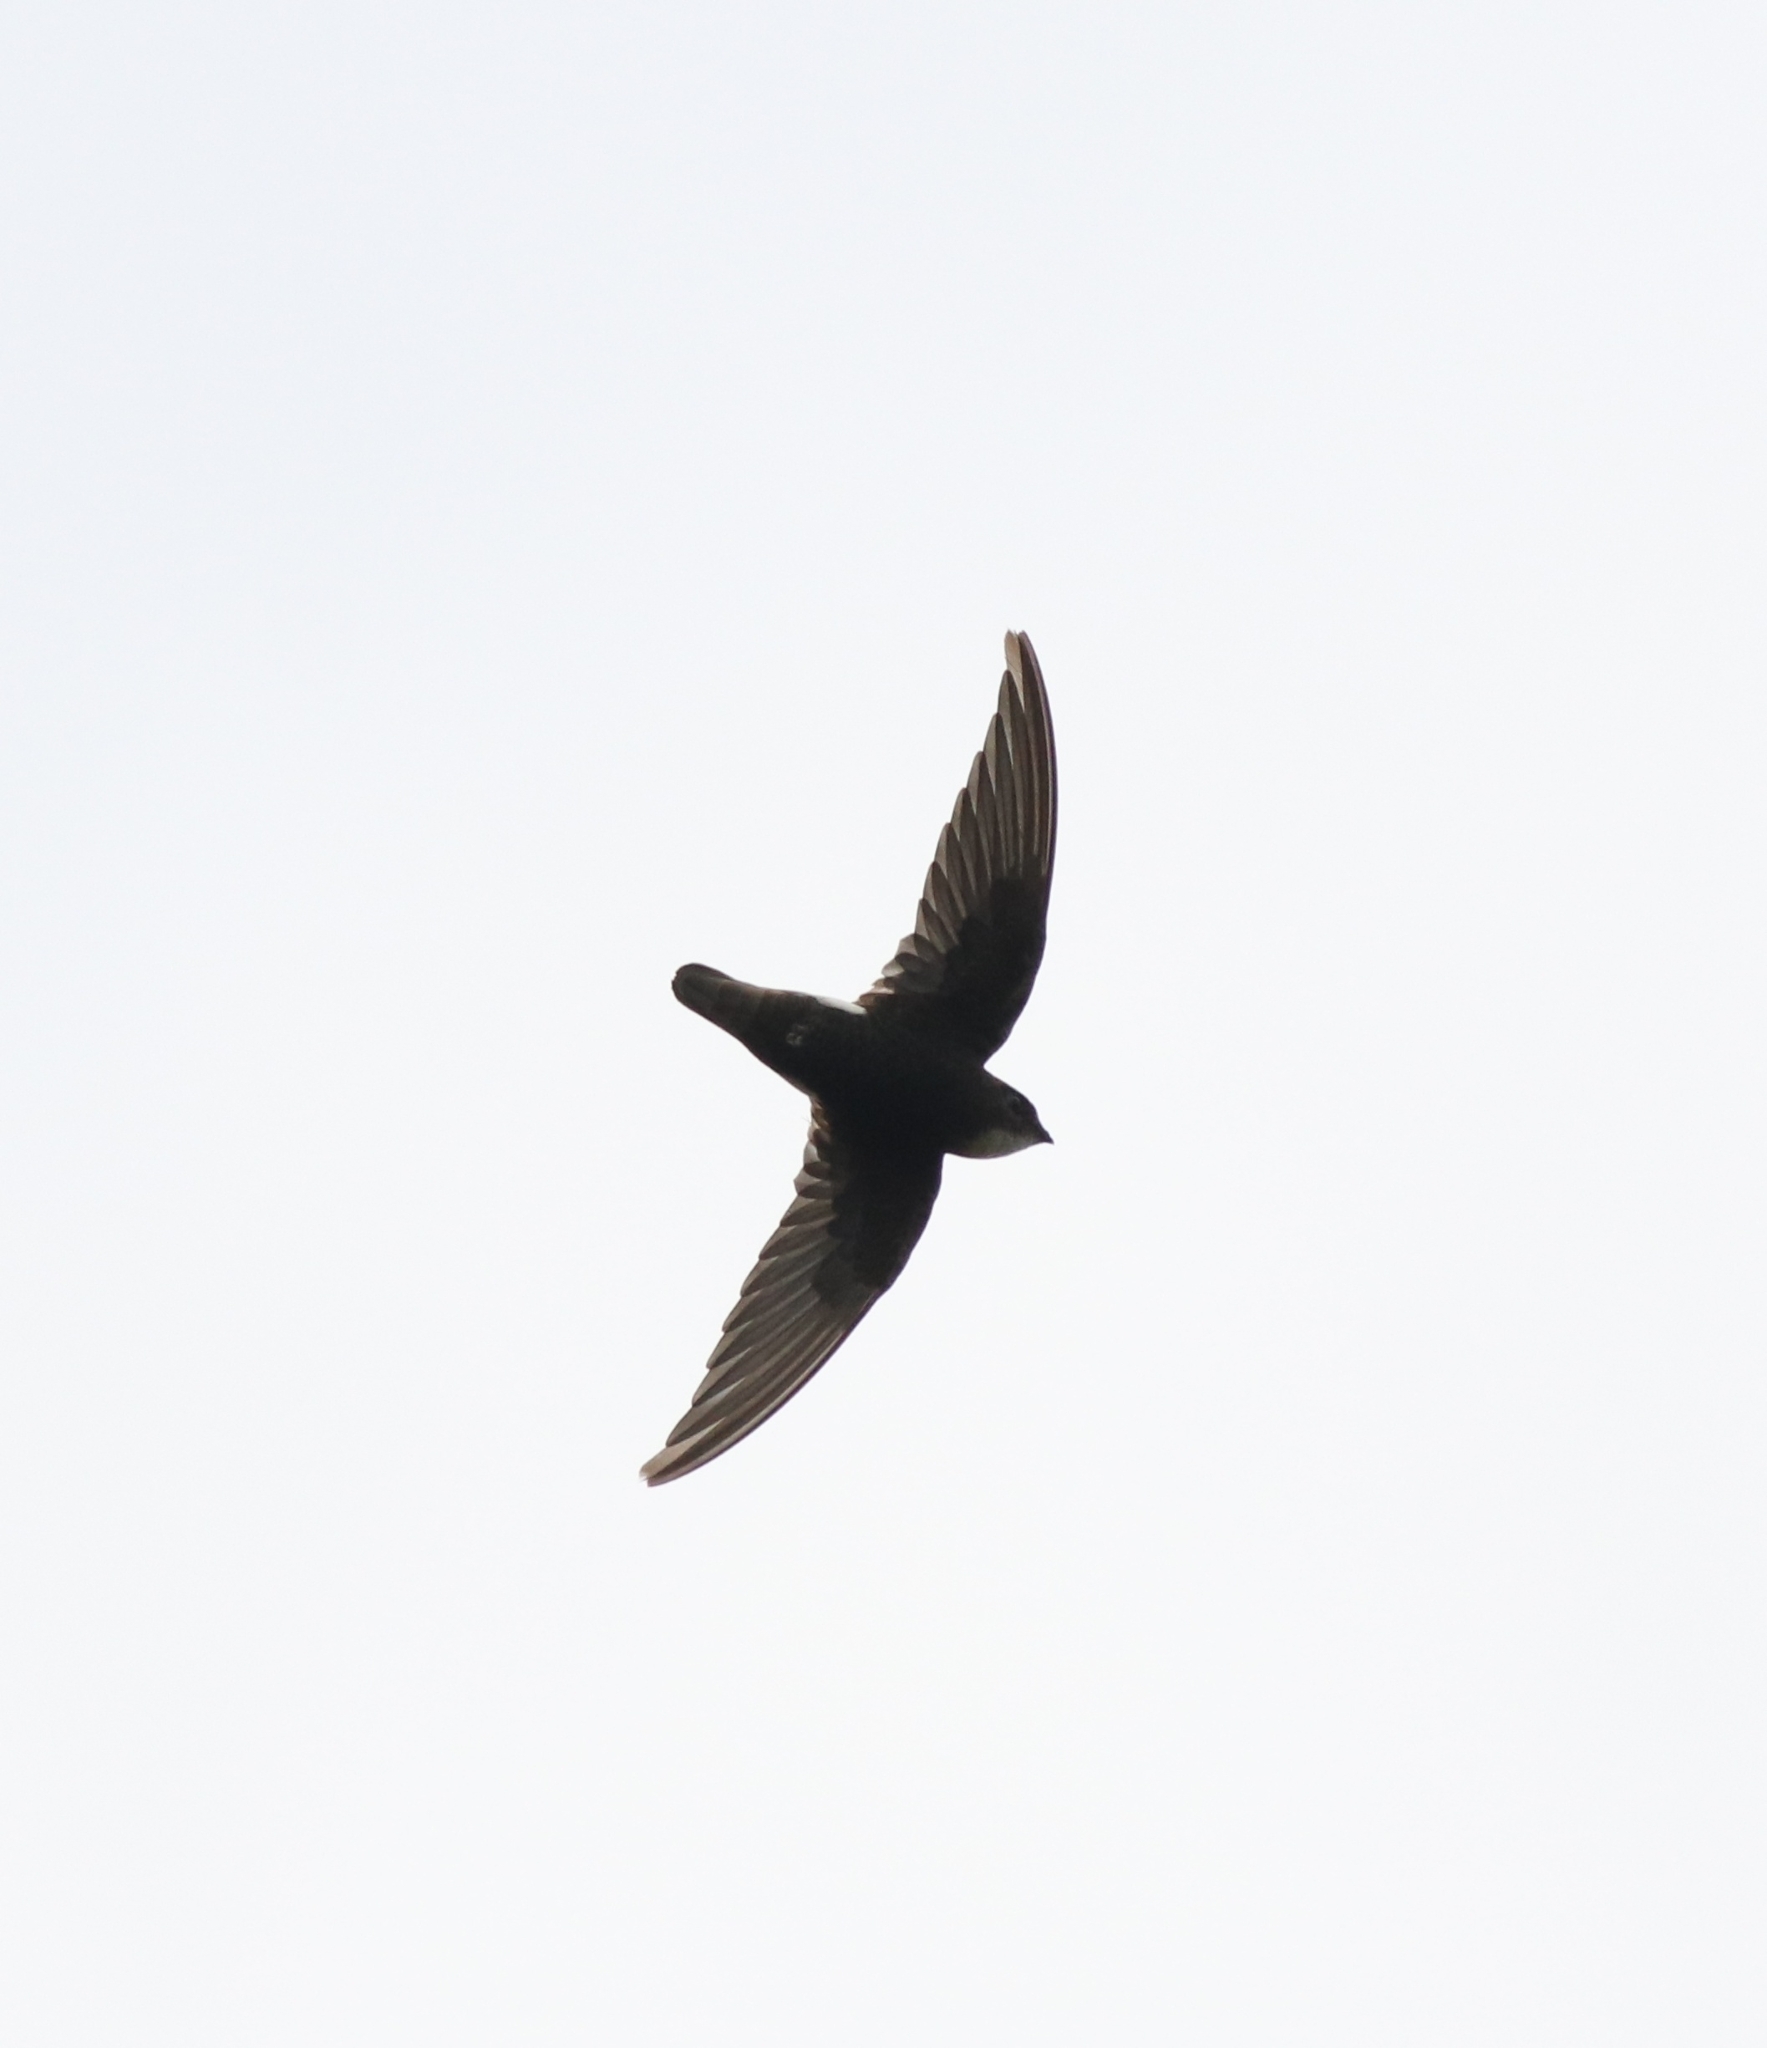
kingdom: Animalia
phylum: Chordata
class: Aves
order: Apodiformes
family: Apodidae
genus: Apus
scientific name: Apus affinis
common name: Little swift
